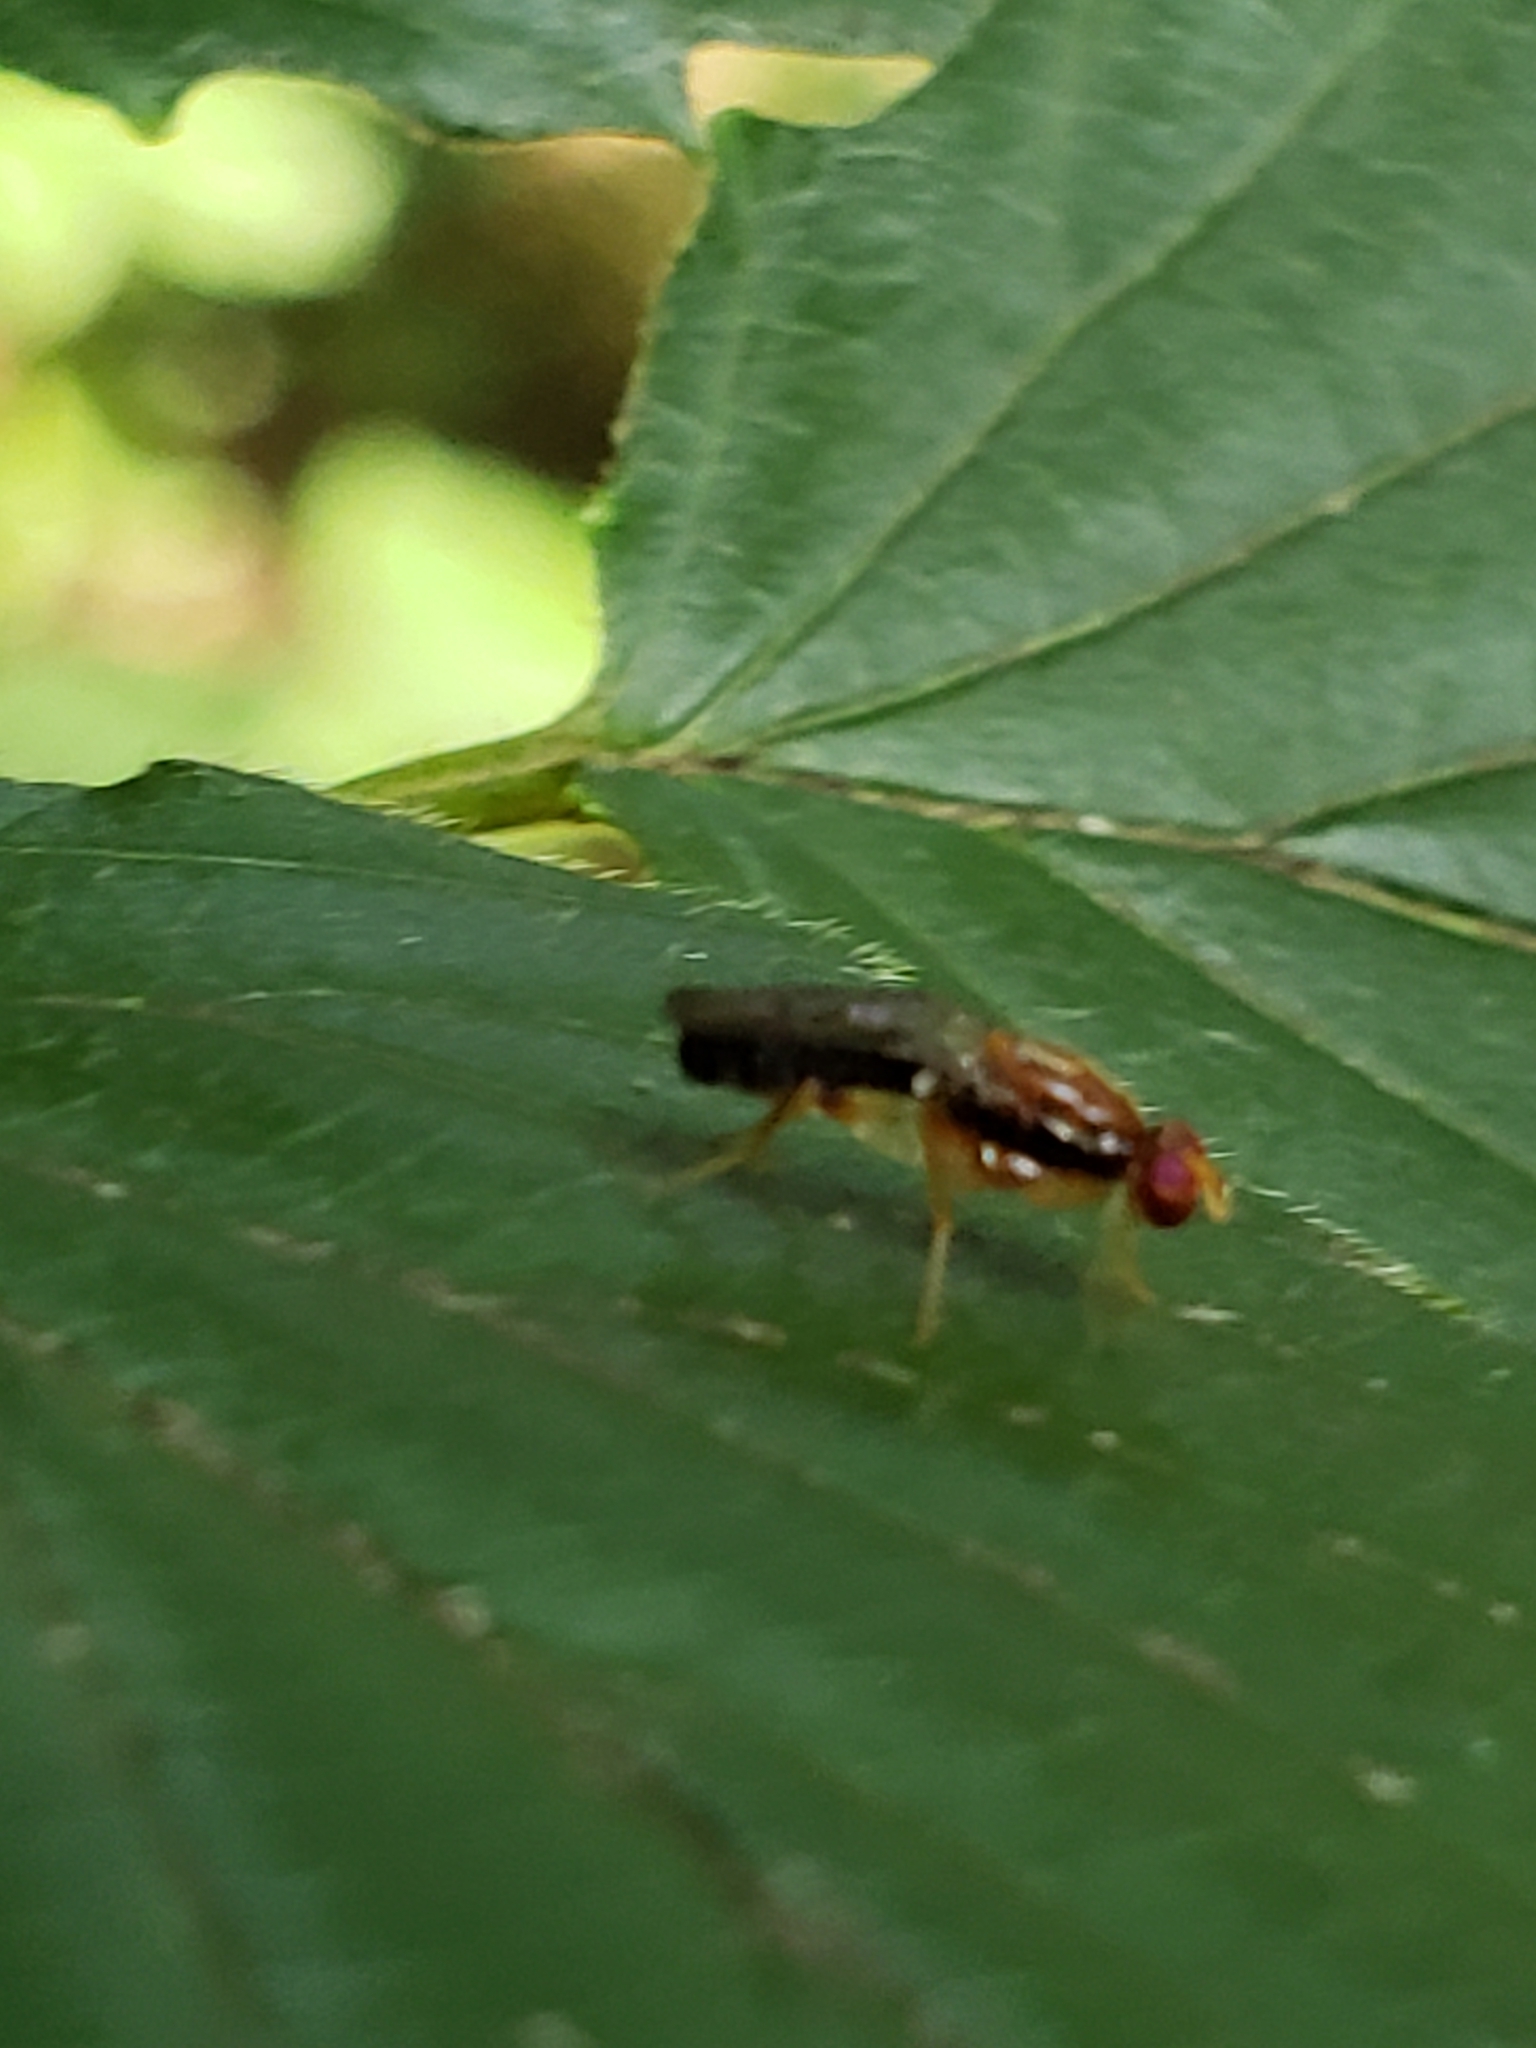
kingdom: Animalia
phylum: Arthropoda
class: Insecta
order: Diptera
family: Psilidae
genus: Chyliza
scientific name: Chyliza apicalis
